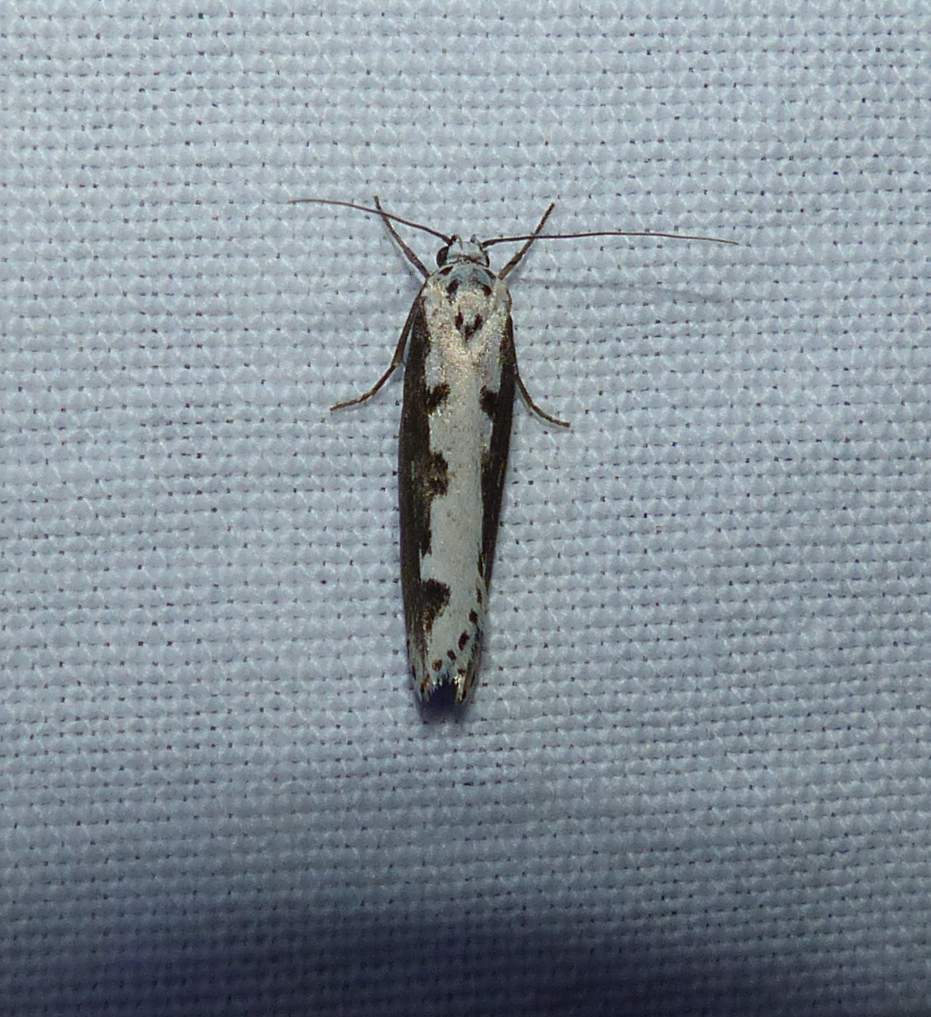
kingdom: Animalia
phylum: Arthropoda
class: Insecta
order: Lepidoptera
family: Ethmiidae
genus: Ethmia
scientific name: Ethmia bipunctella
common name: Bordered ermel
